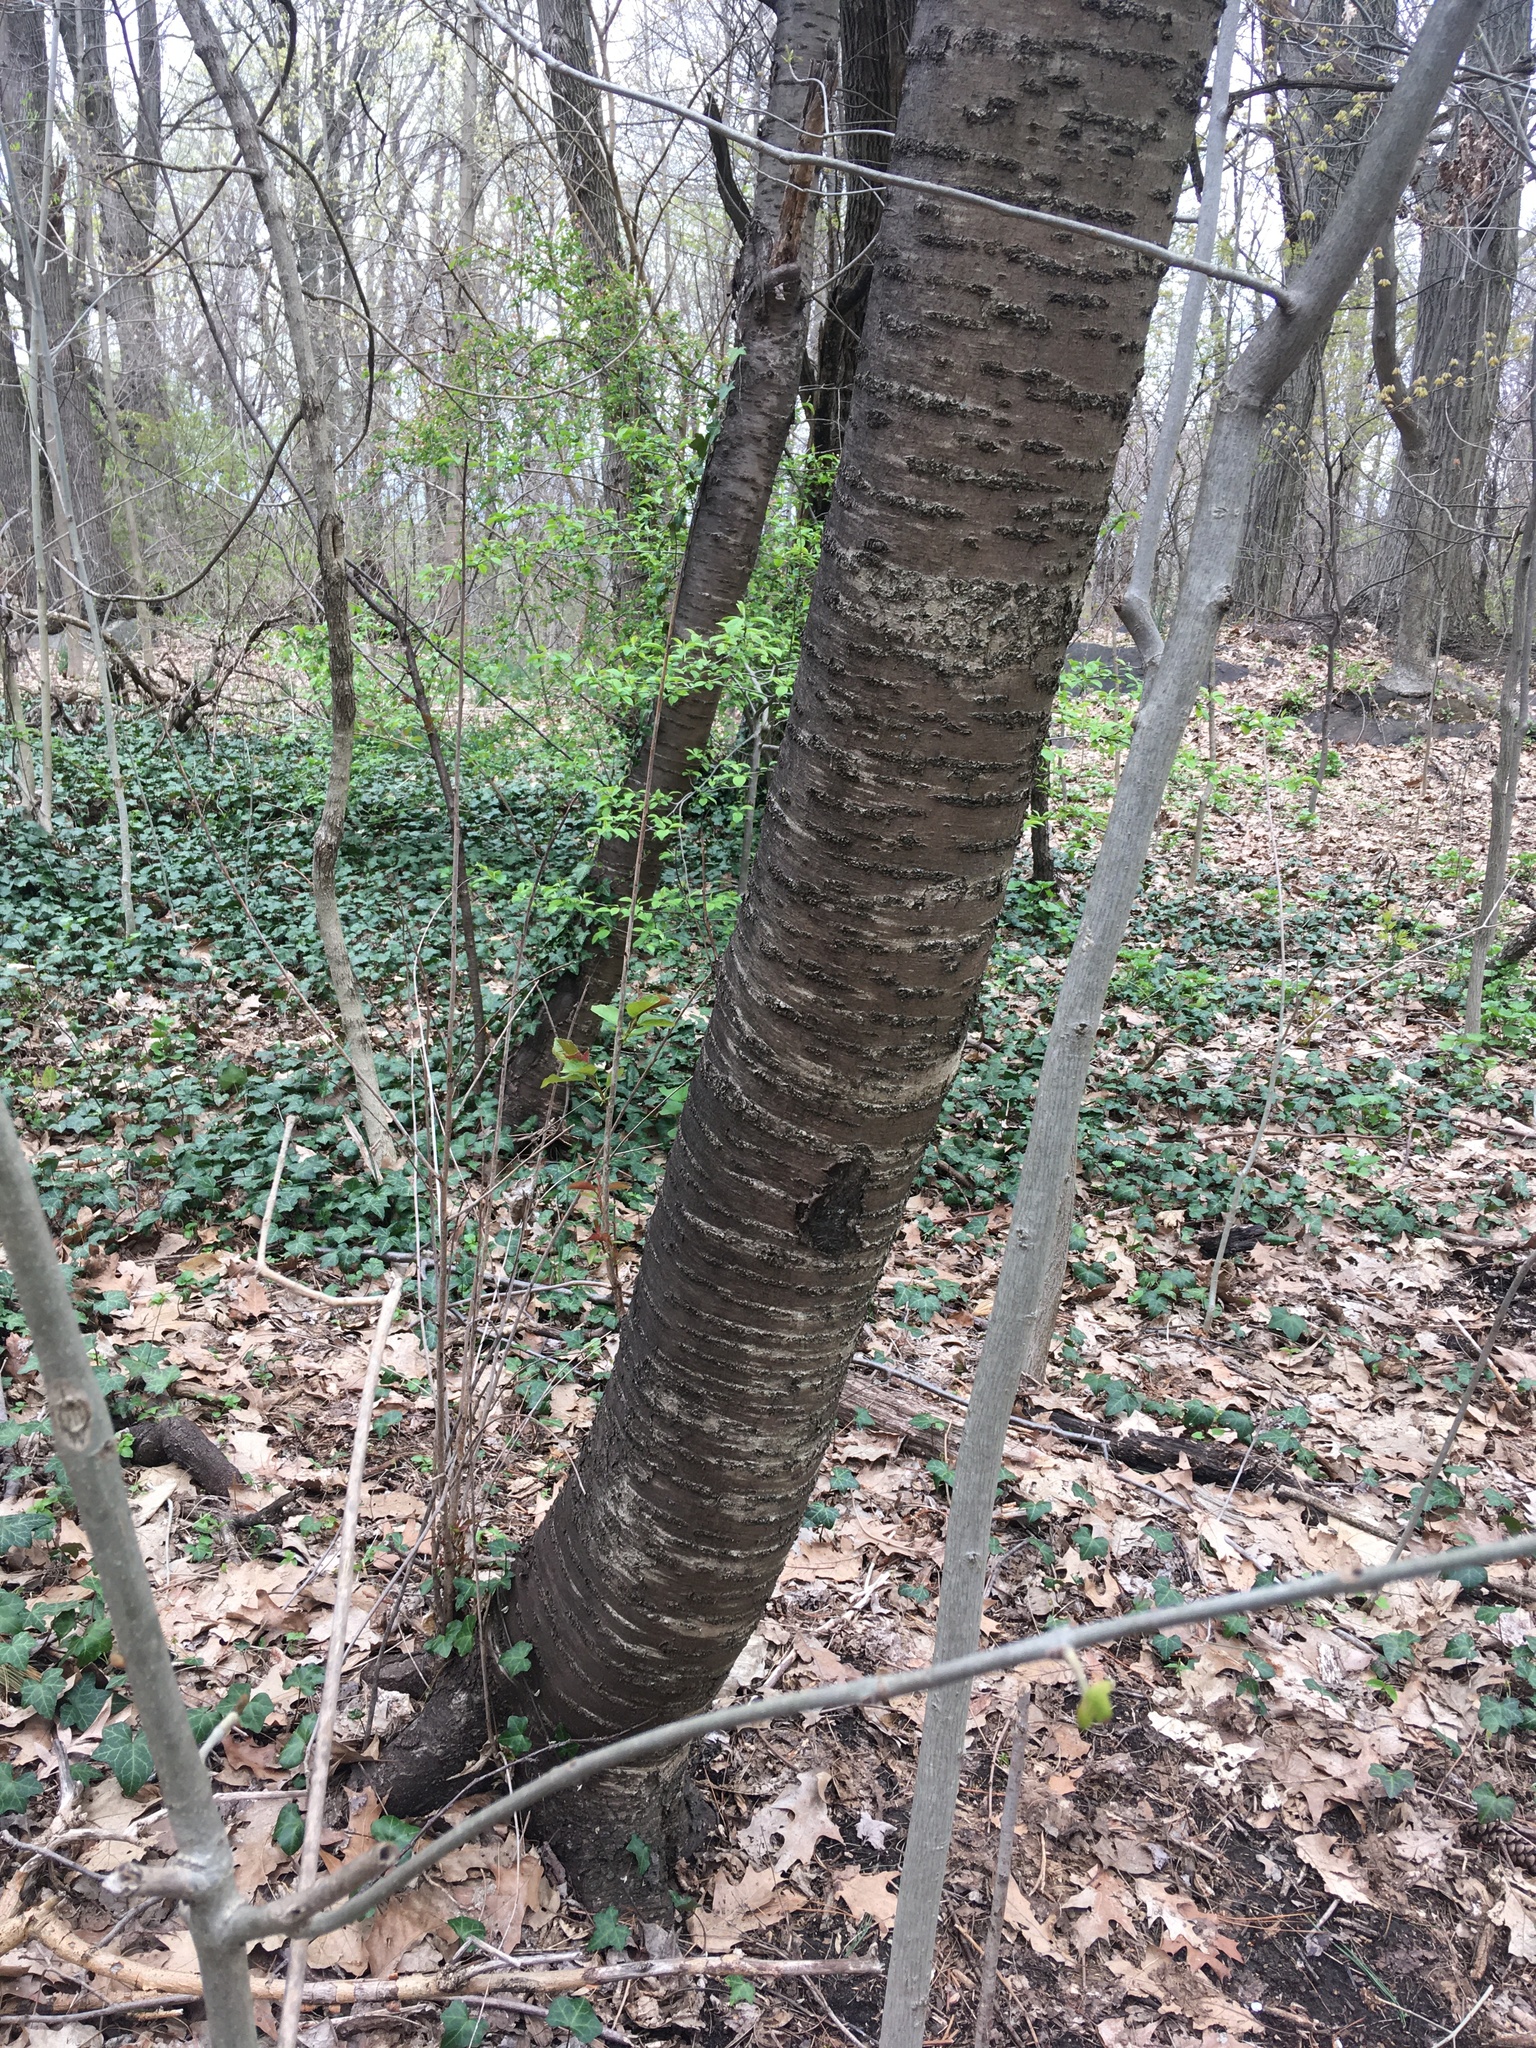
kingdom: Plantae
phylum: Tracheophyta
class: Magnoliopsida
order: Rosales
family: Rosaceae
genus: Prunus
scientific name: Prunus avium
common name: Sweet cherry
